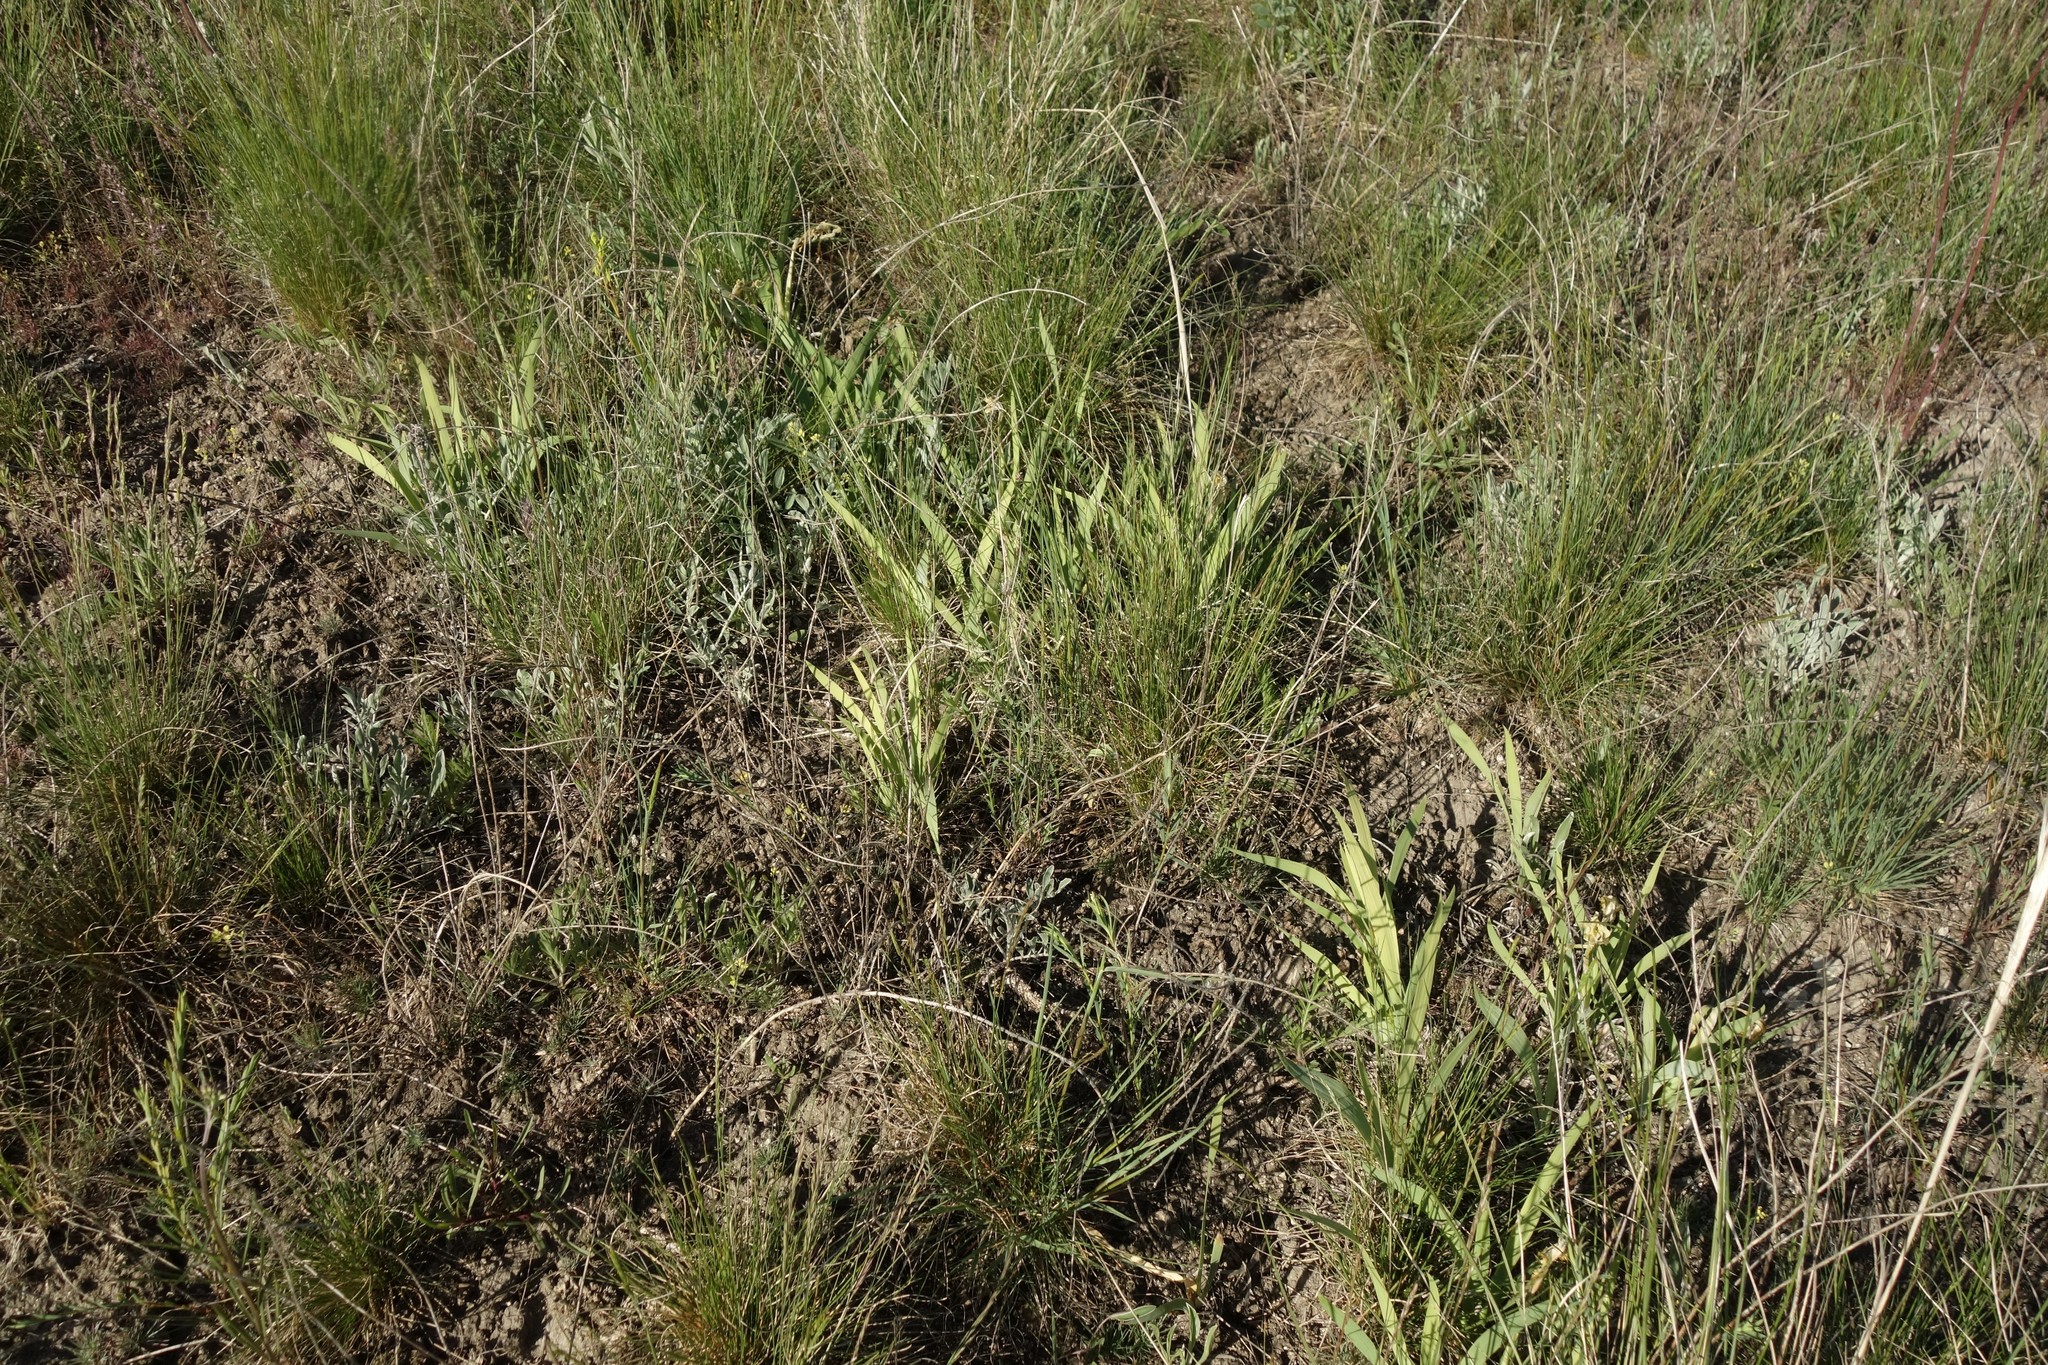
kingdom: Plantae
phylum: Tracheophyta
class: Liliopsida
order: Asparagales
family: Iridaceae
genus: Iris
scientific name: Iris pumila
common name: Dwarf iris
